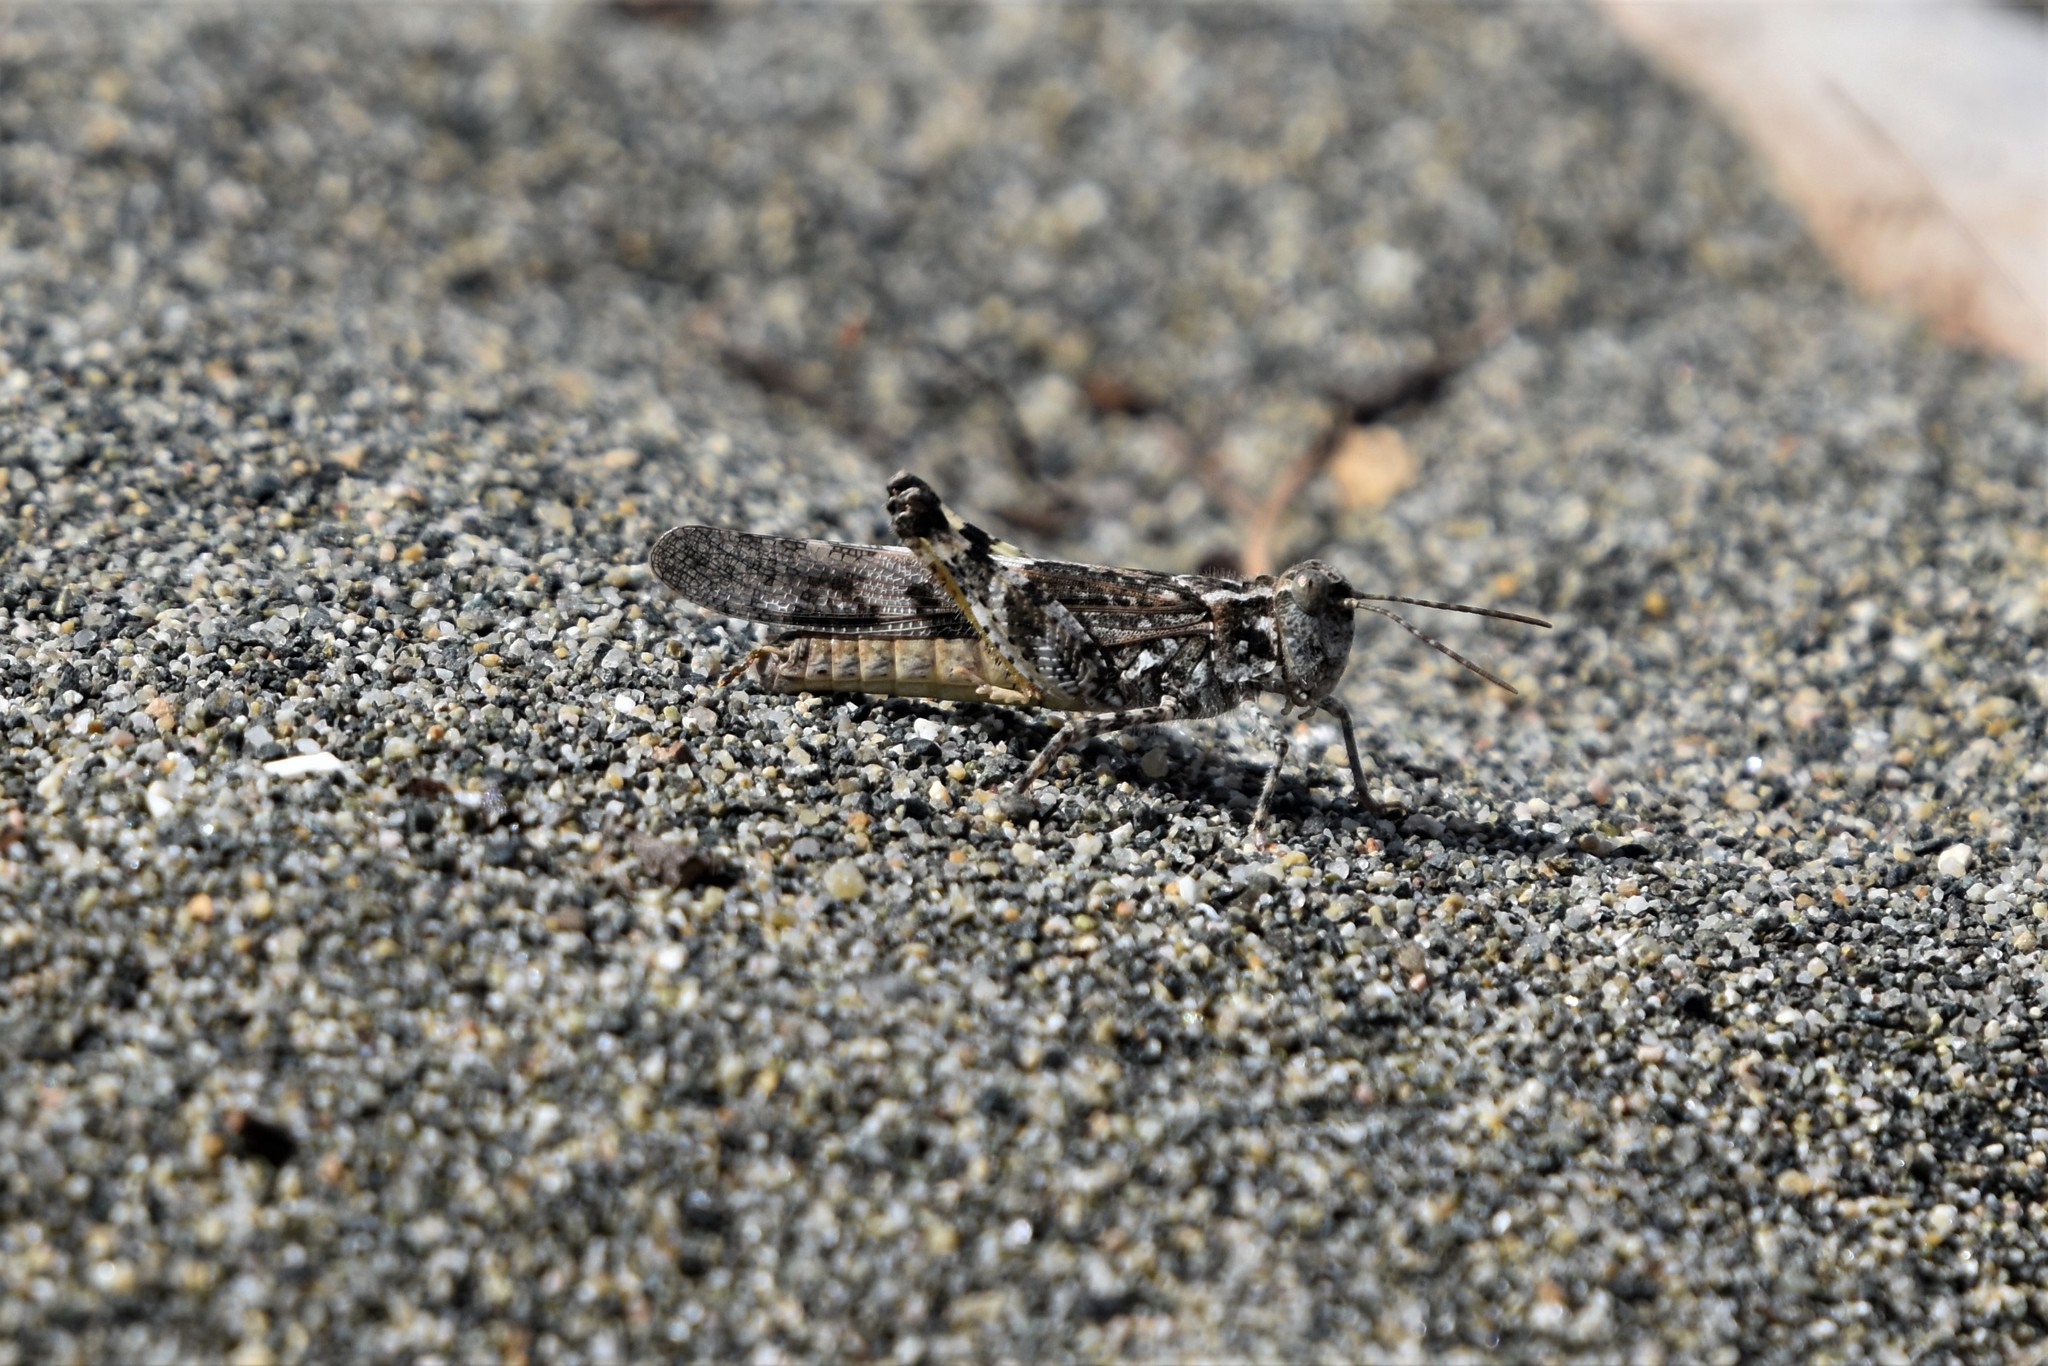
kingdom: Animalia
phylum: Arthropoda
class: Insecta
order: Orthoptera
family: Acrididae
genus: Trimerotropis
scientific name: Trimerotropis pallidipennis
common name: Pallid-winged grasshopper
